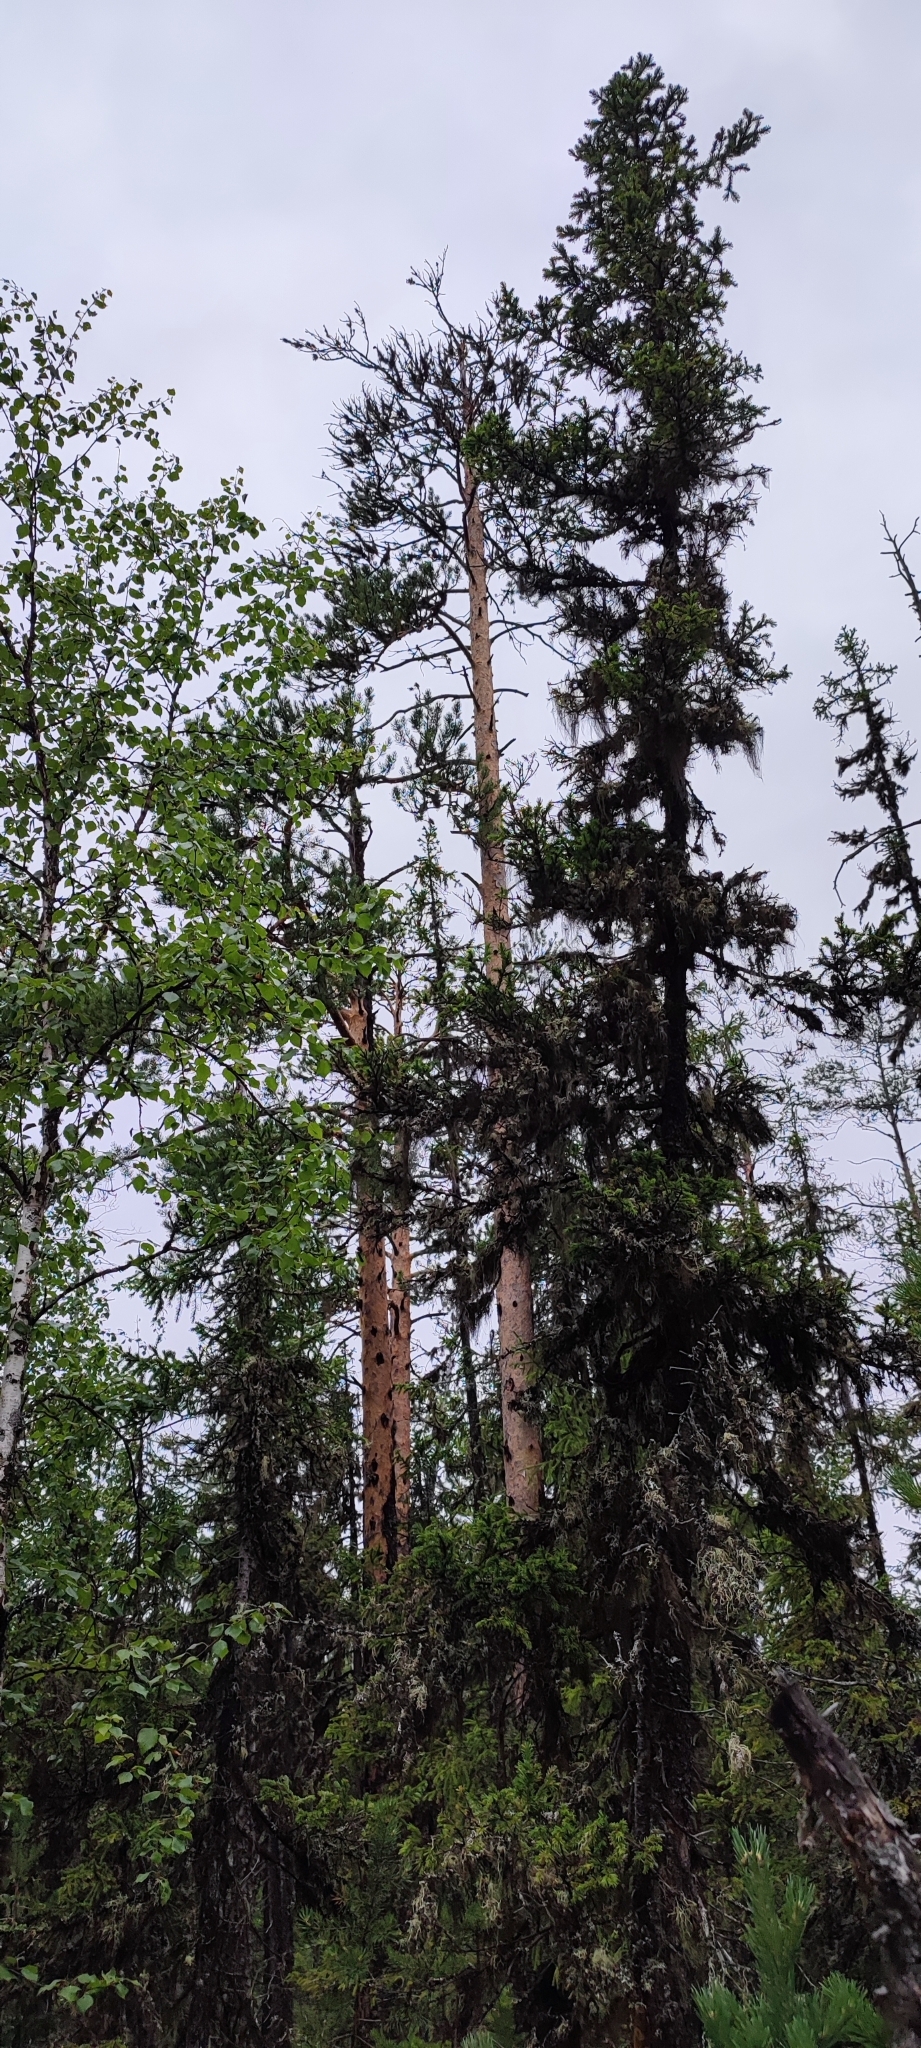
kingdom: Plantae
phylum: Tracheophyta
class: Pinopsida
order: Pinales
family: Pinaceae
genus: Pinus
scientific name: Pinus sylvestris
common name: Scots pine
